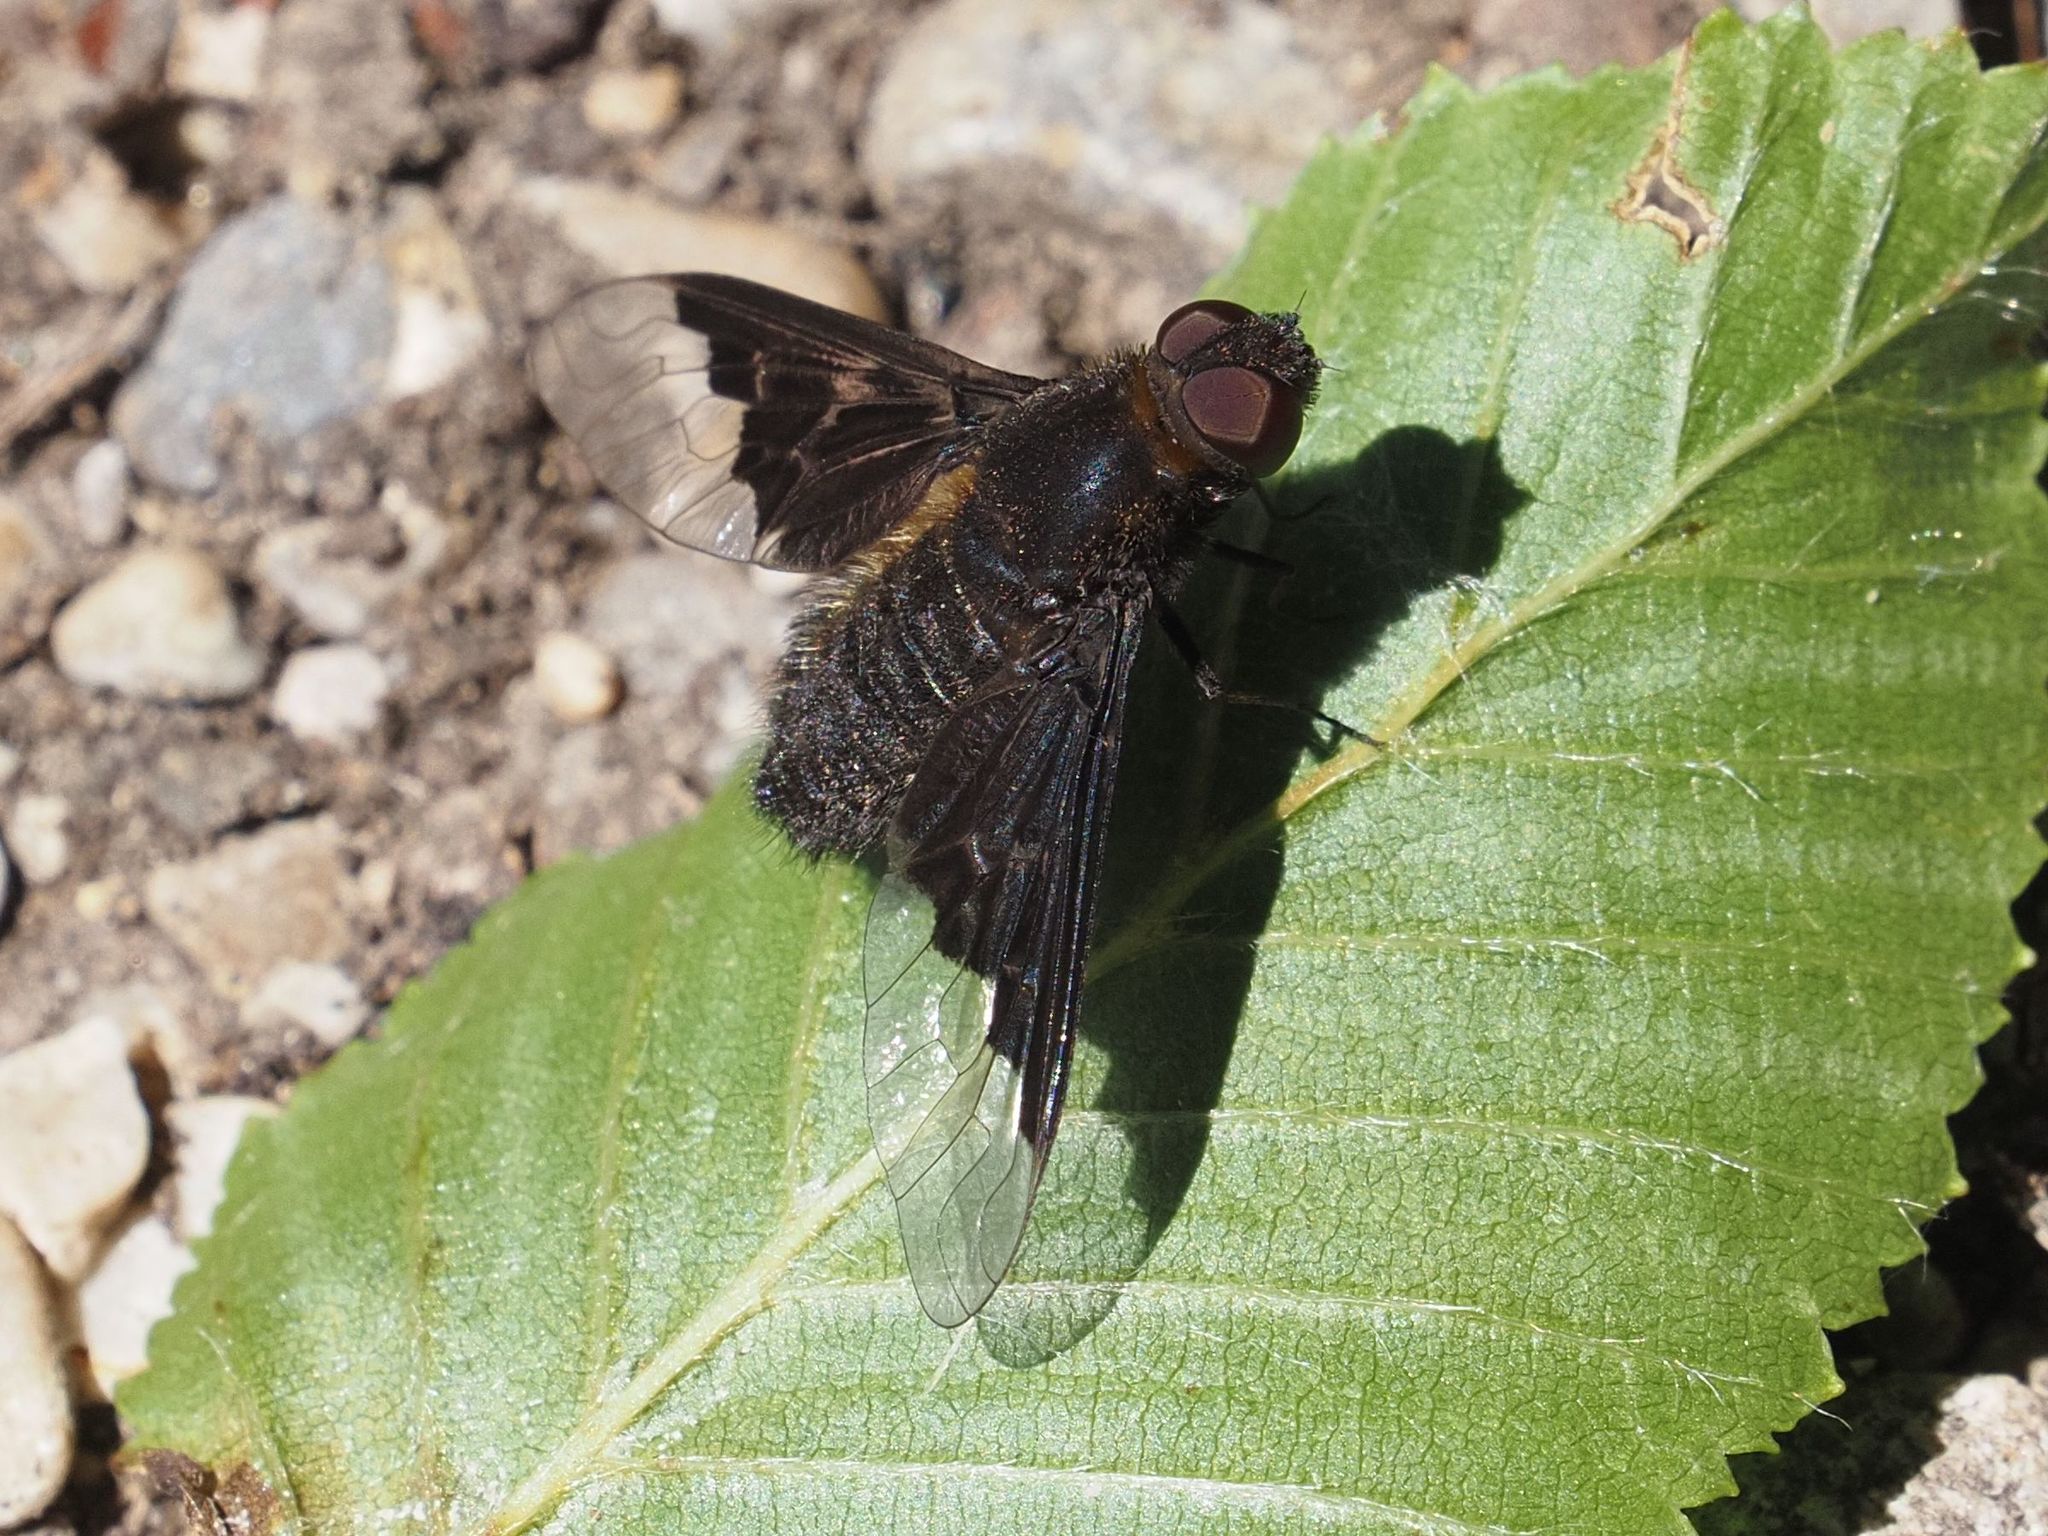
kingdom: Animalia
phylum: Arthropoda
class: Insecta
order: Diptera
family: Bombyliidae
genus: Hemipenthes
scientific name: Hemipenthes morio
